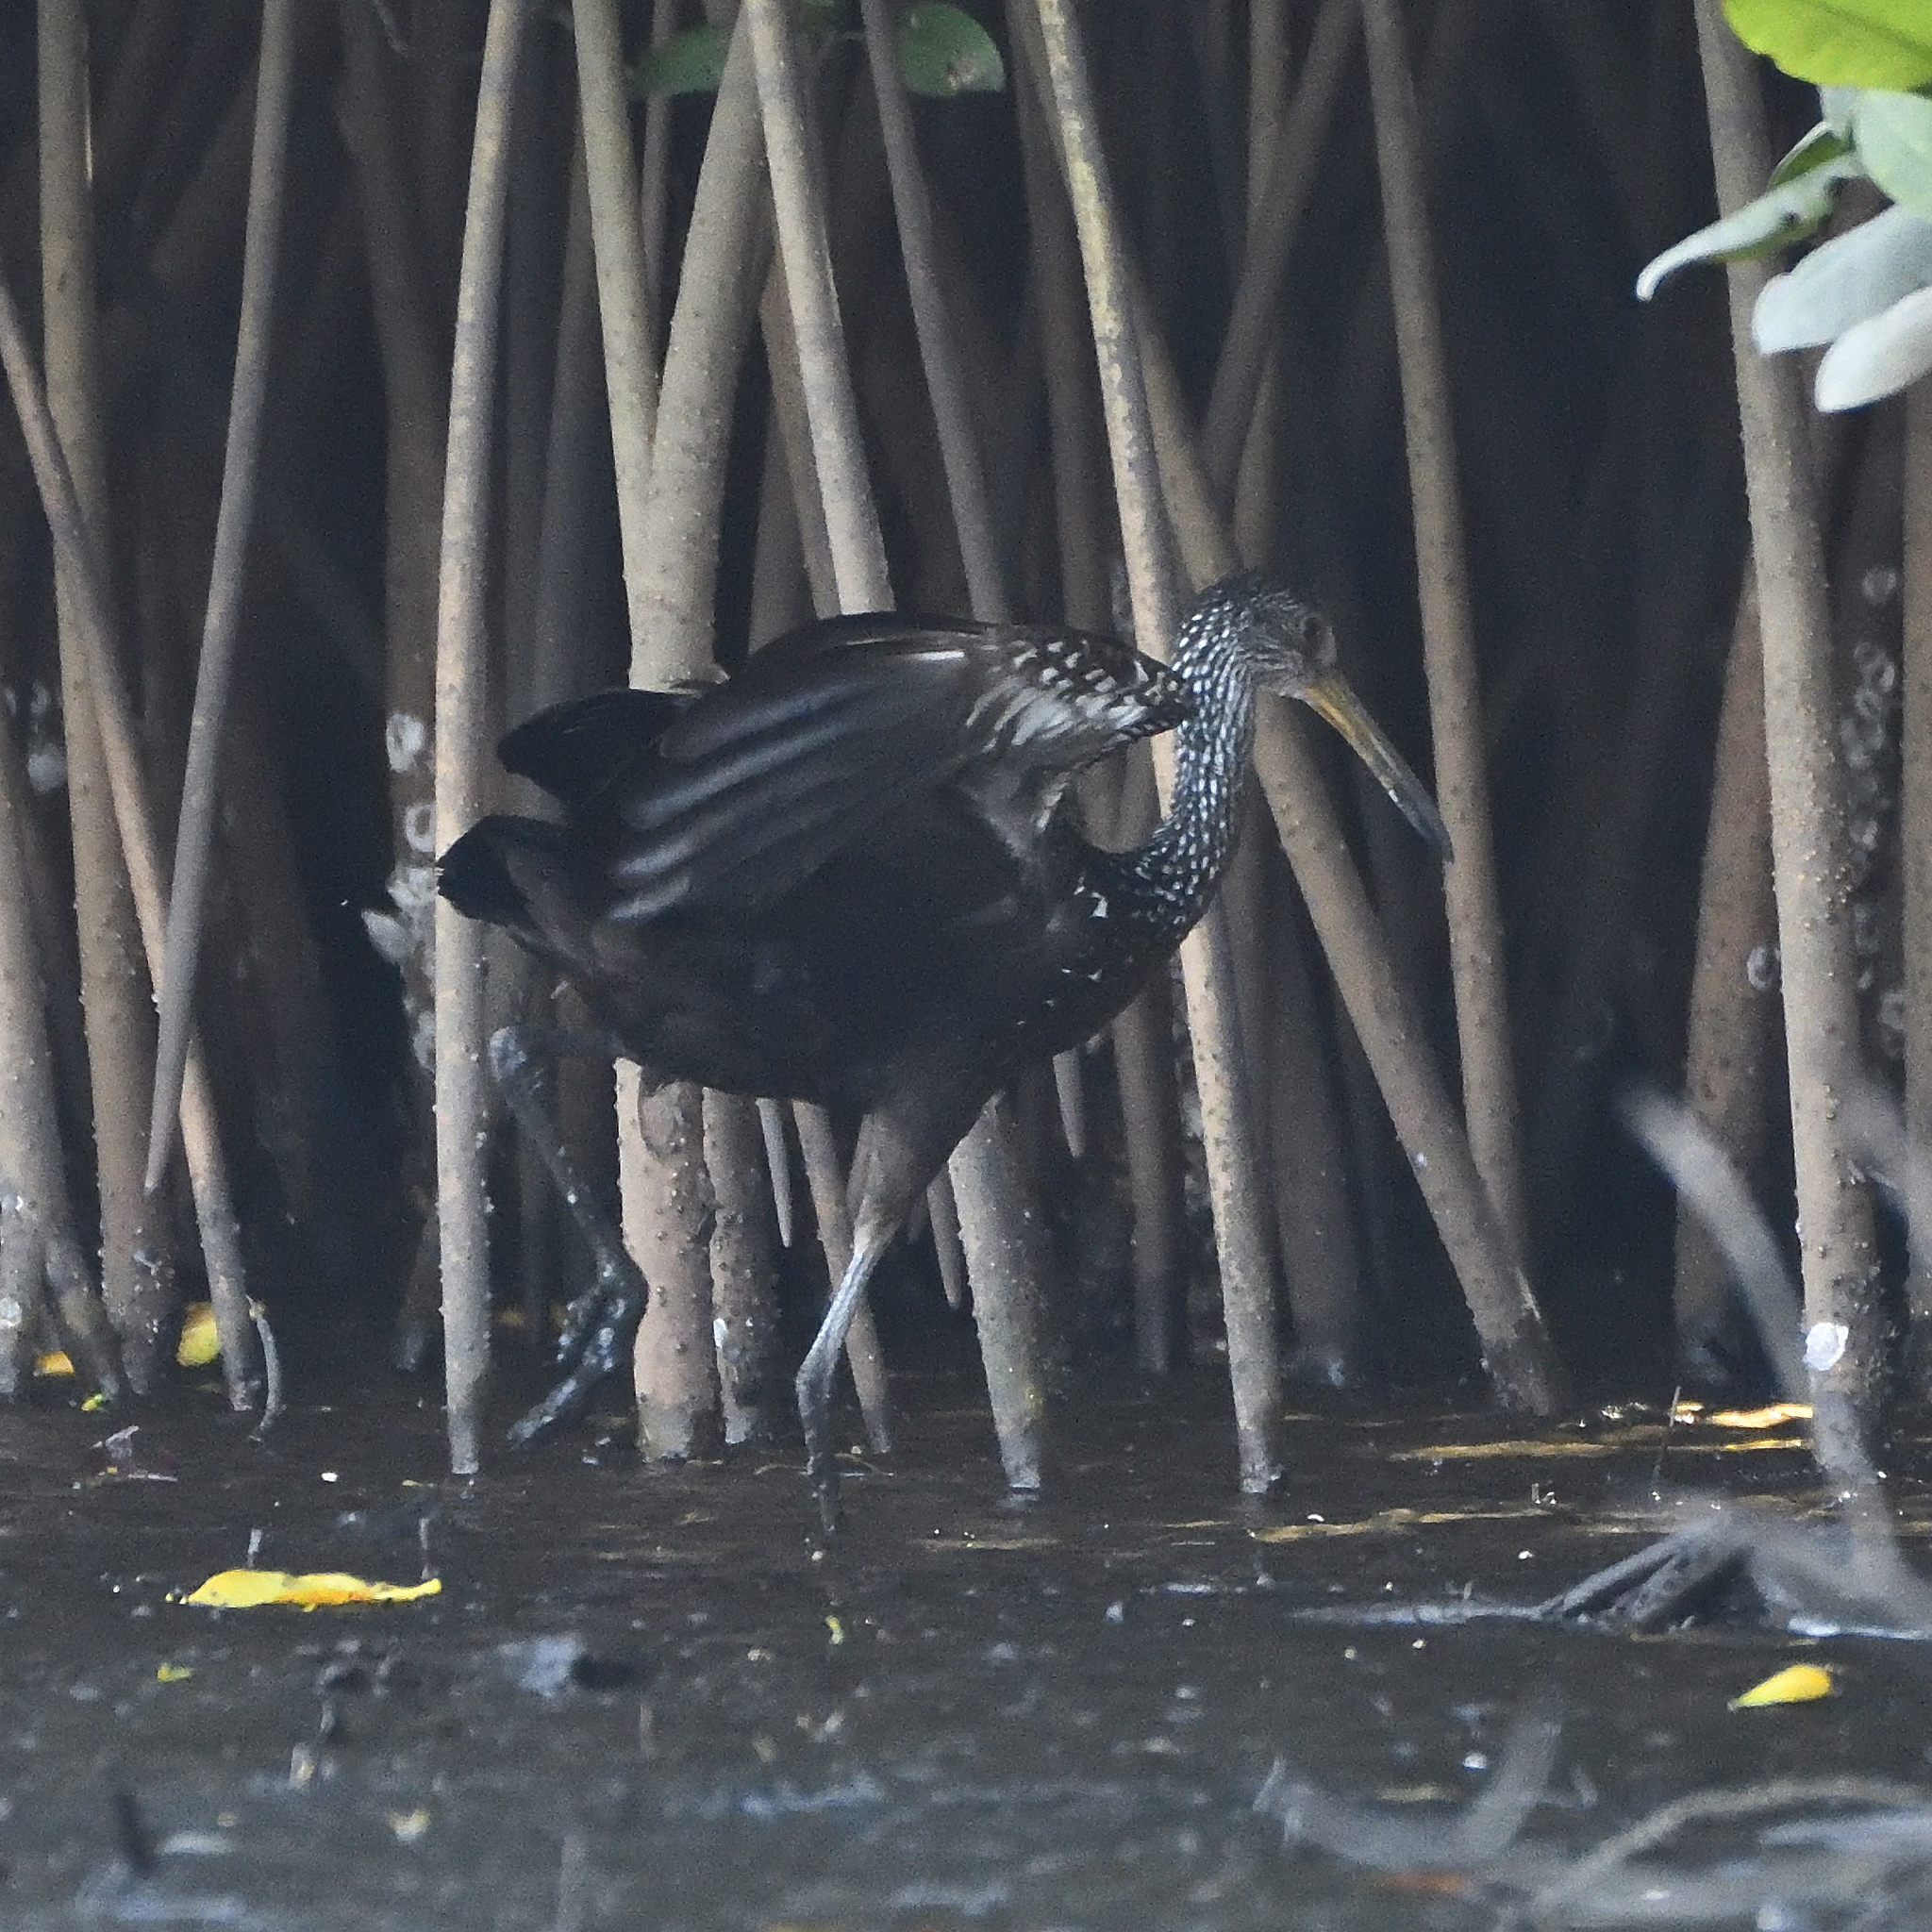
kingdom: Animalia
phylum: Chordata
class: Aves
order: Gruiformes
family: Aramidae
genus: Aramus
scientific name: Aramus guarauna
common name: Limpkin
